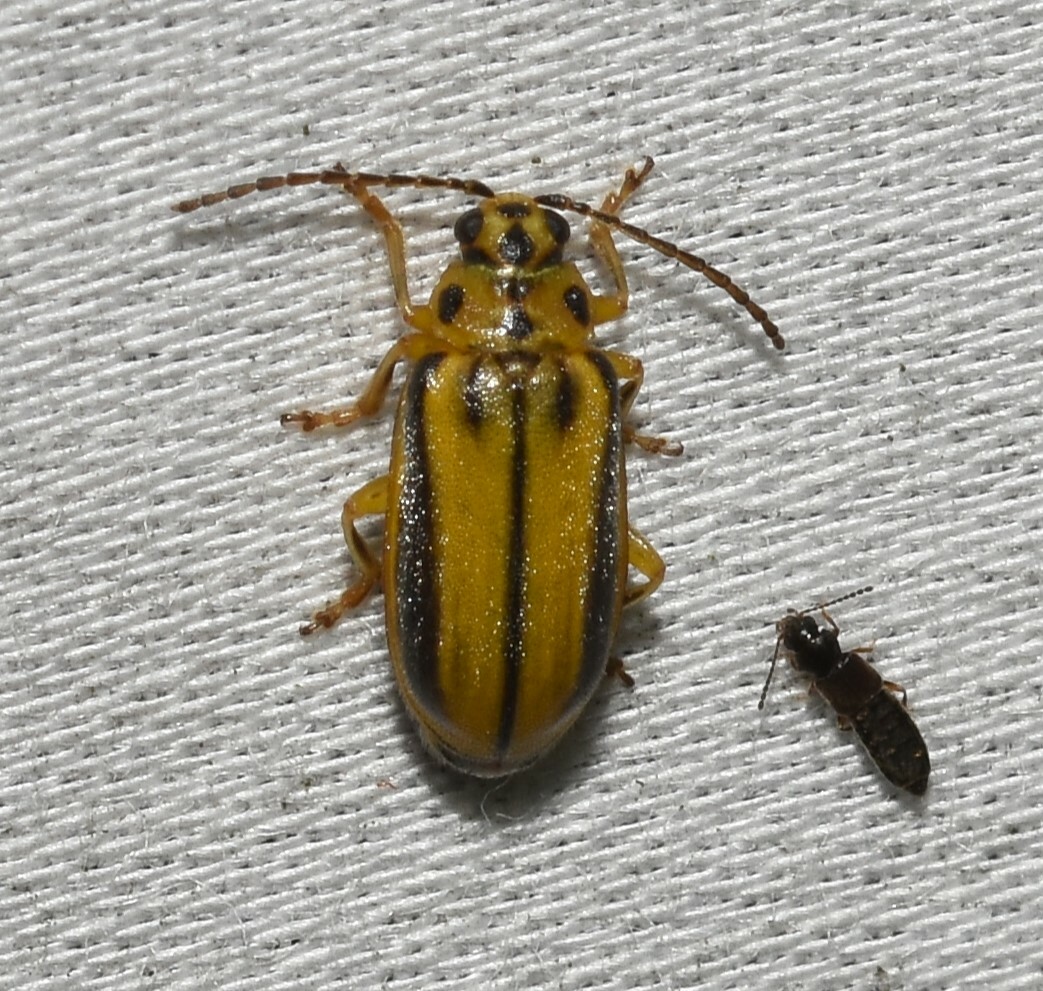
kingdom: Animalia
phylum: Arthropoda
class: Insecta
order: Coleoptera
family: Chrysomelidae
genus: Xanthogaleruca
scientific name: Xanthogaleruca luteola
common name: Elm leaf beetle
